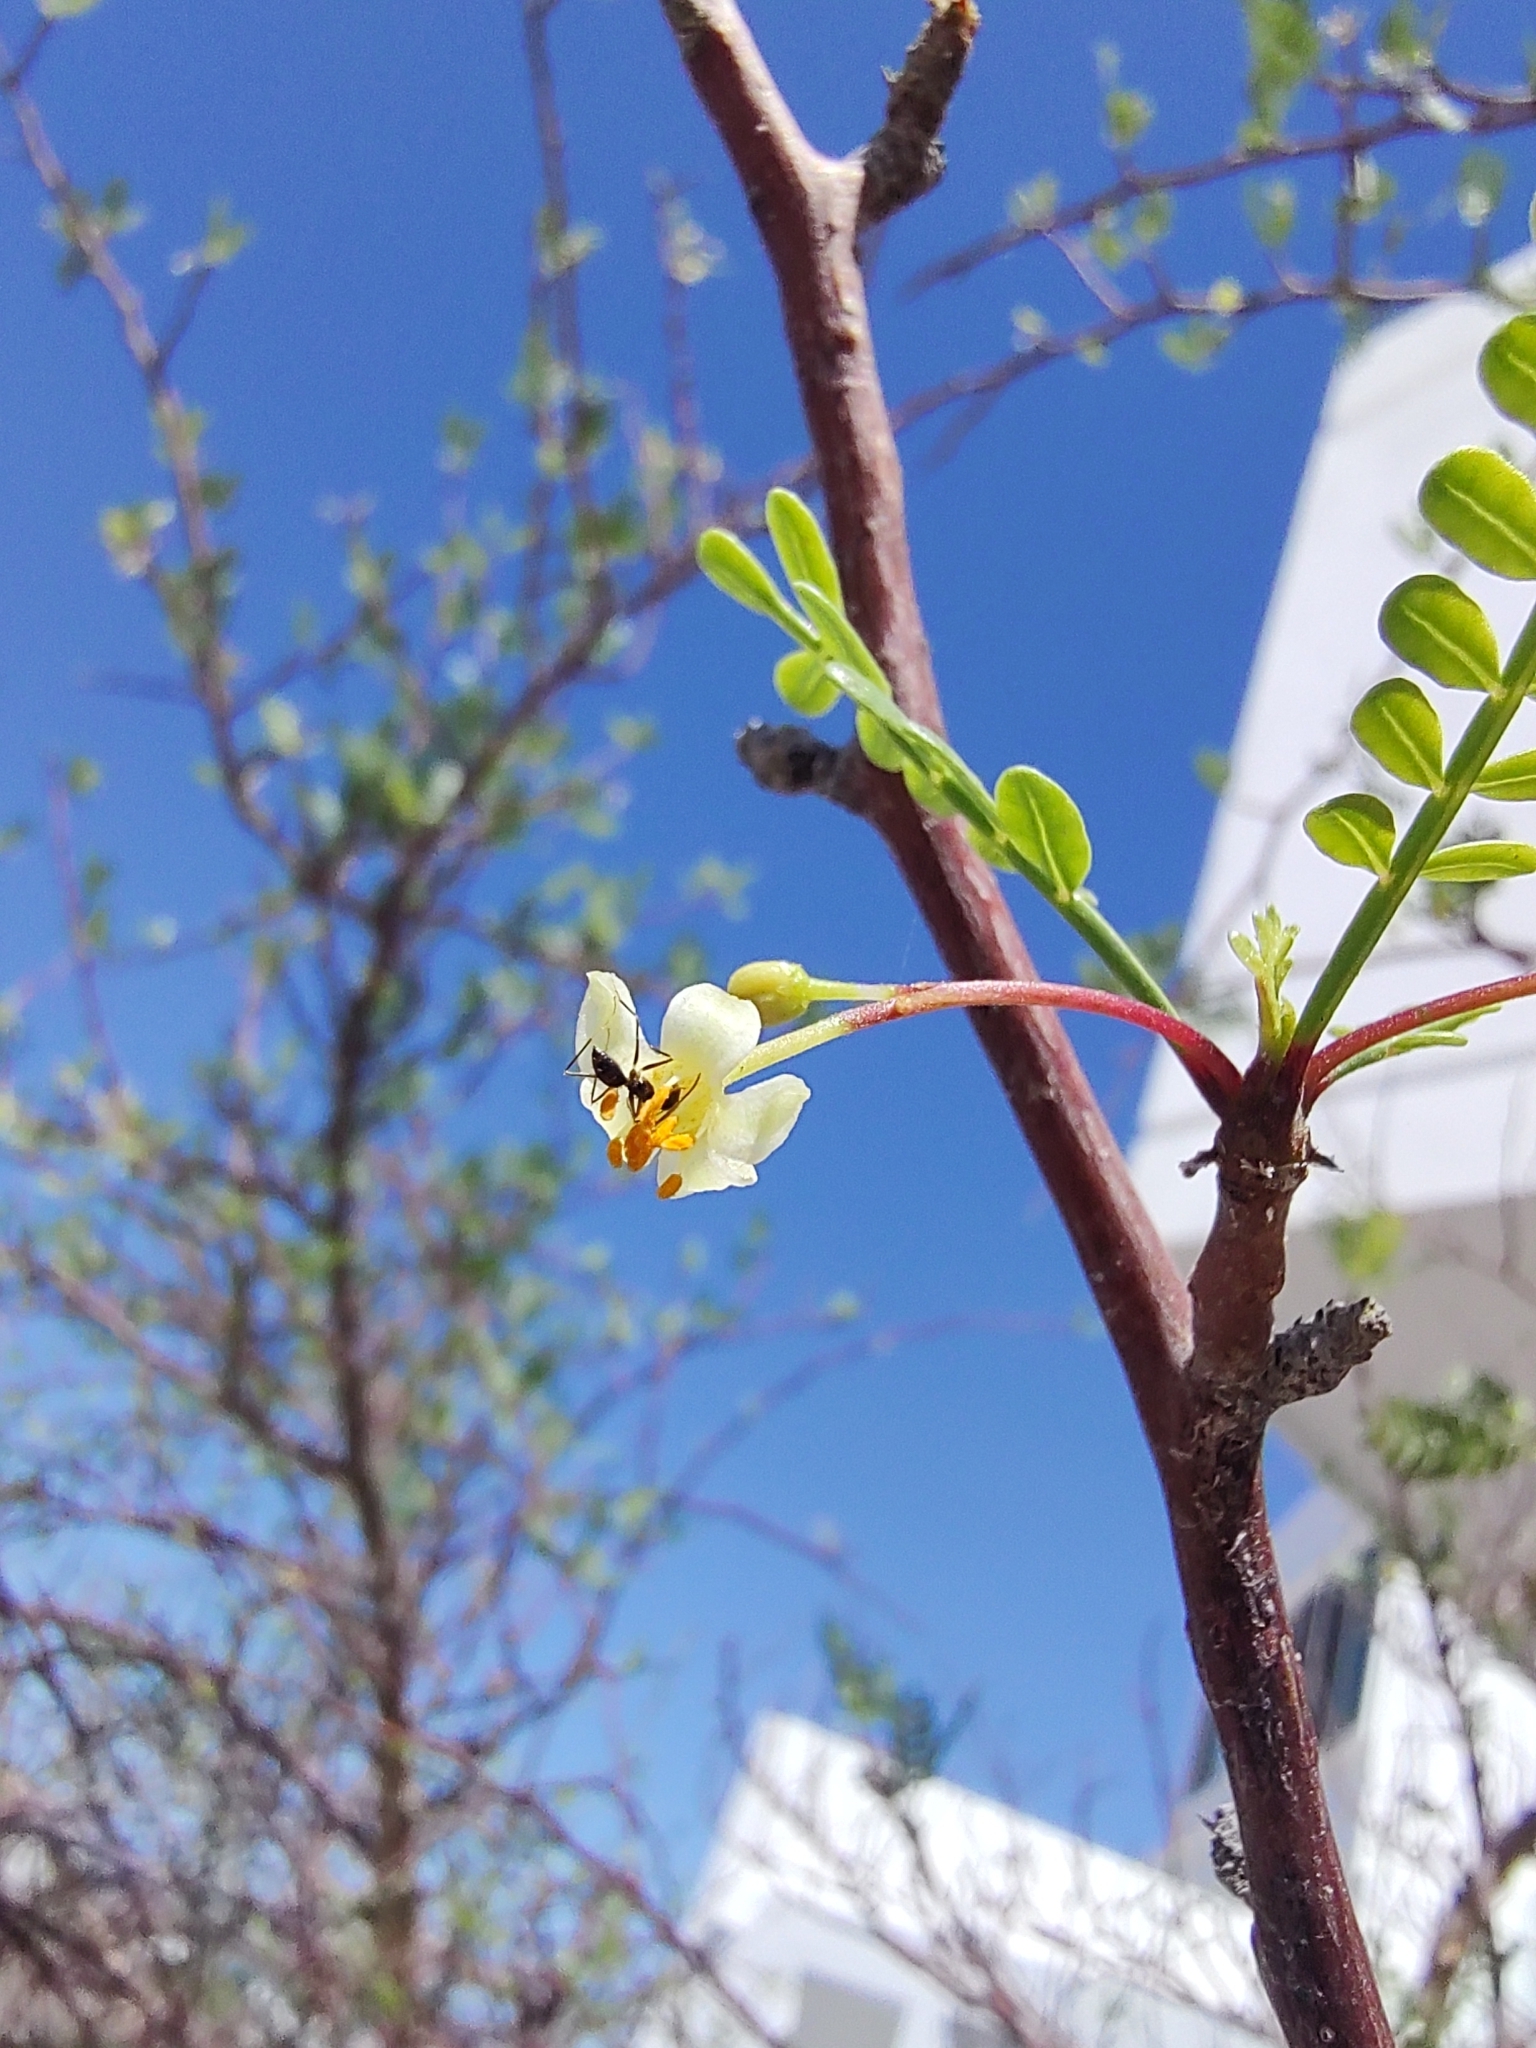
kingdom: Plantae
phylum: Tracheophyta
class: Magnoliopsida
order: Sapindales
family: Burseraceae
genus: Bursera
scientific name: Bursera microphylla
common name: Elephant tree
